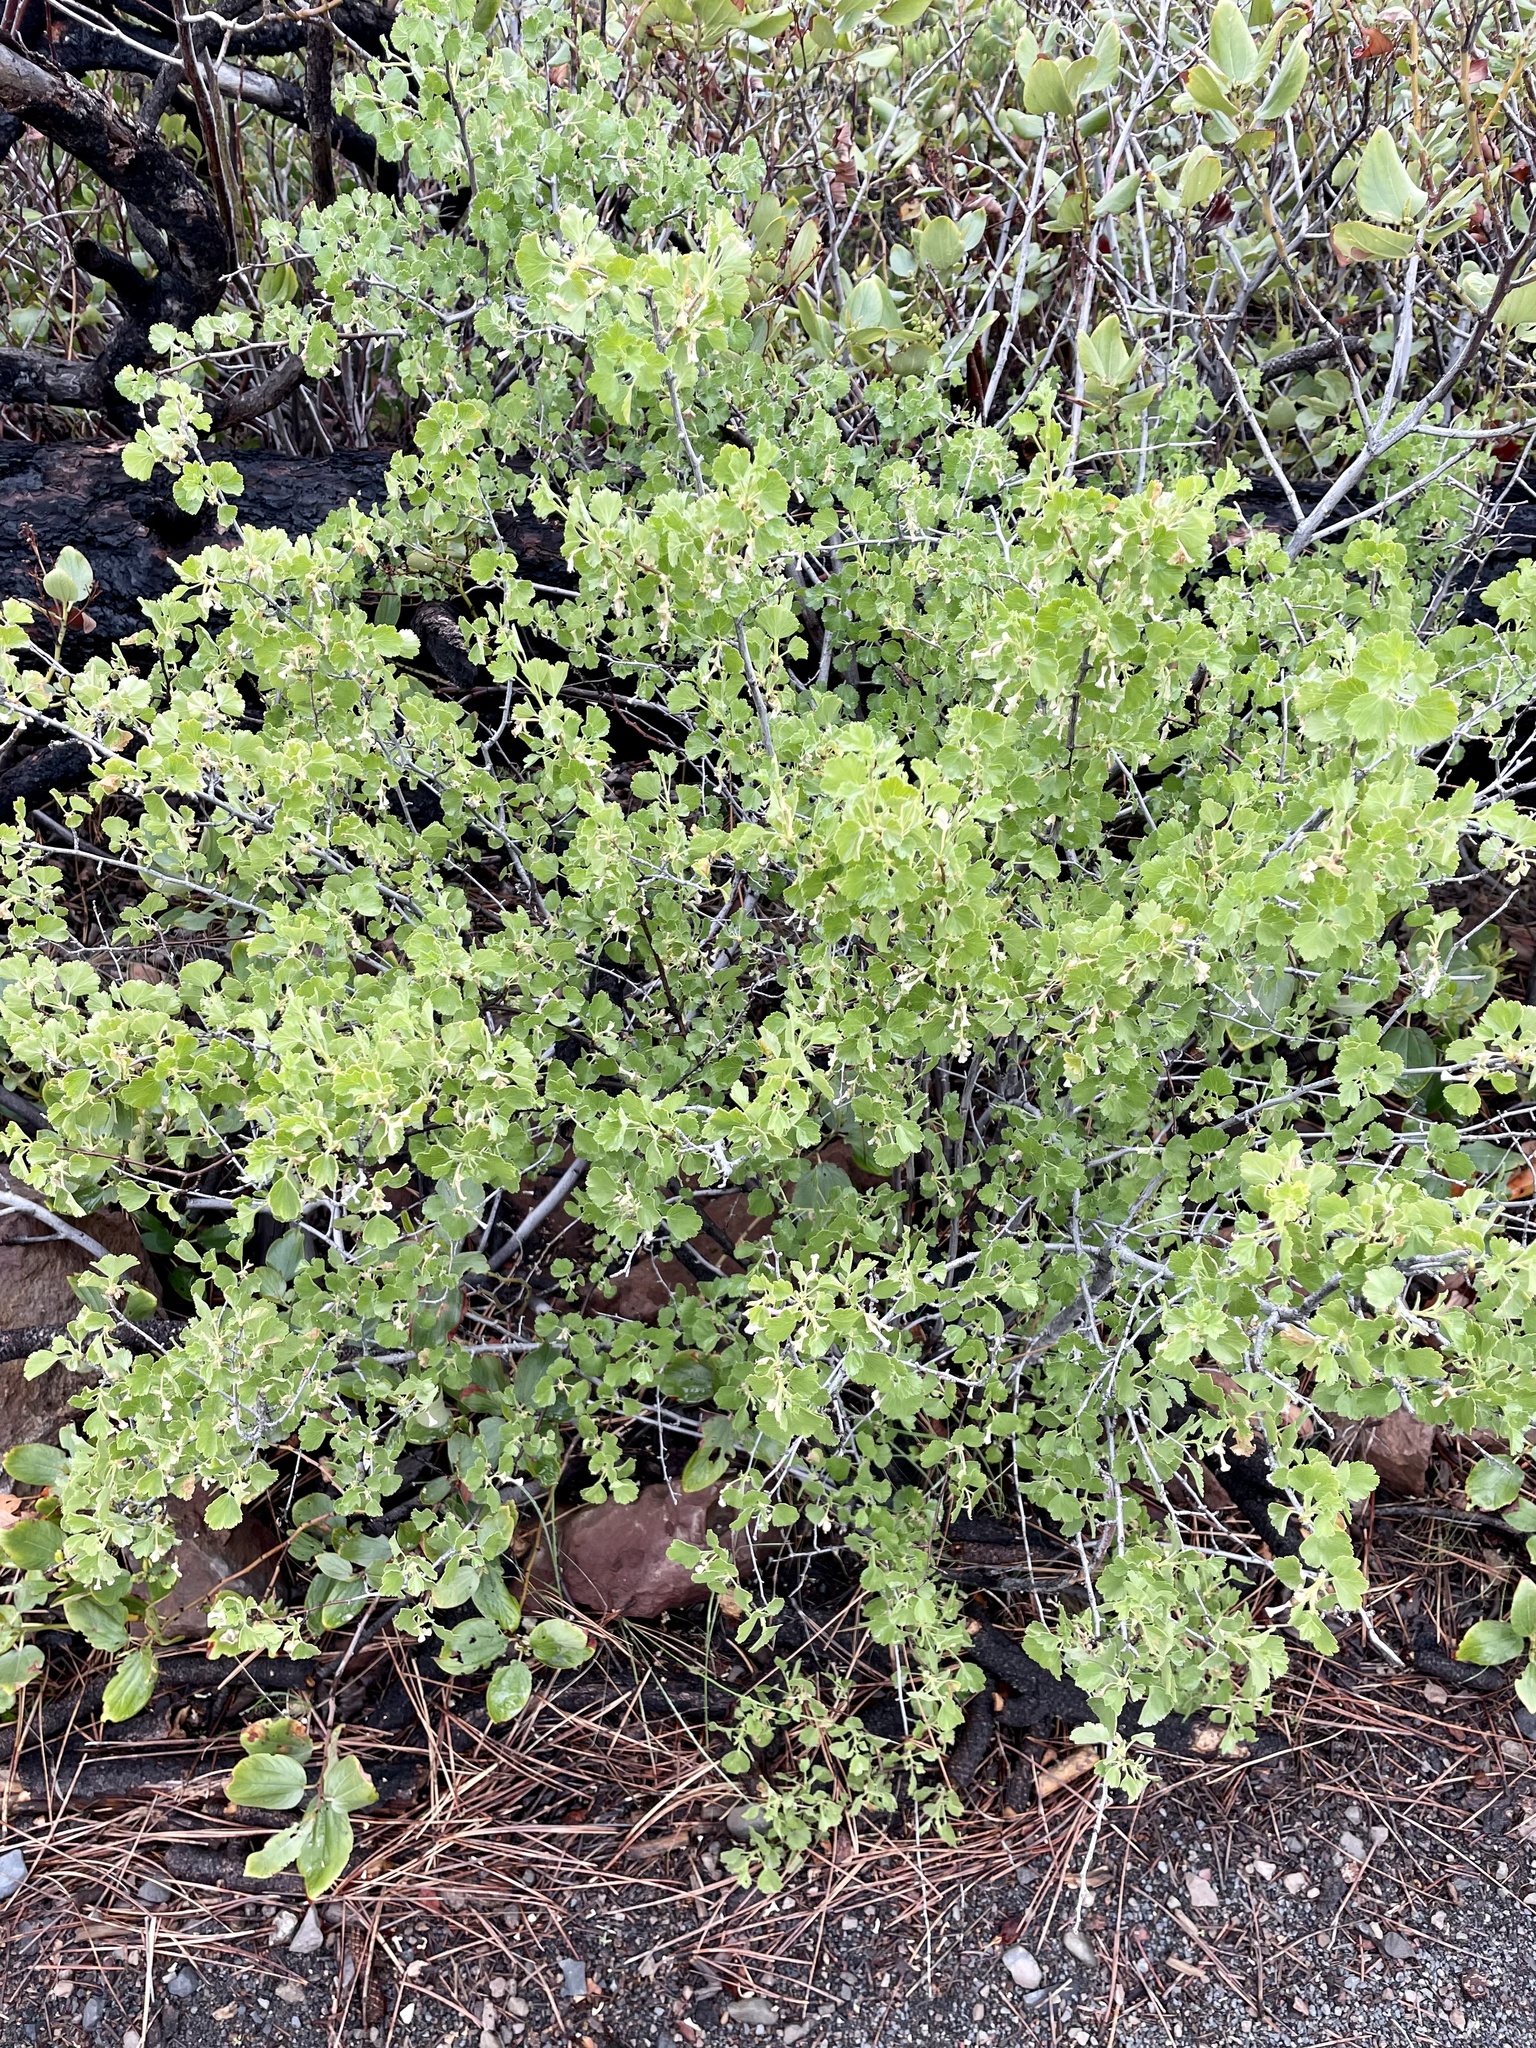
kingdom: Plantae
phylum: Tracheophyta
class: Magnoliopsida
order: Saxifragales
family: Grossulariaceae
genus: Ribes
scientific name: Ribes cereum
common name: Wax currant
